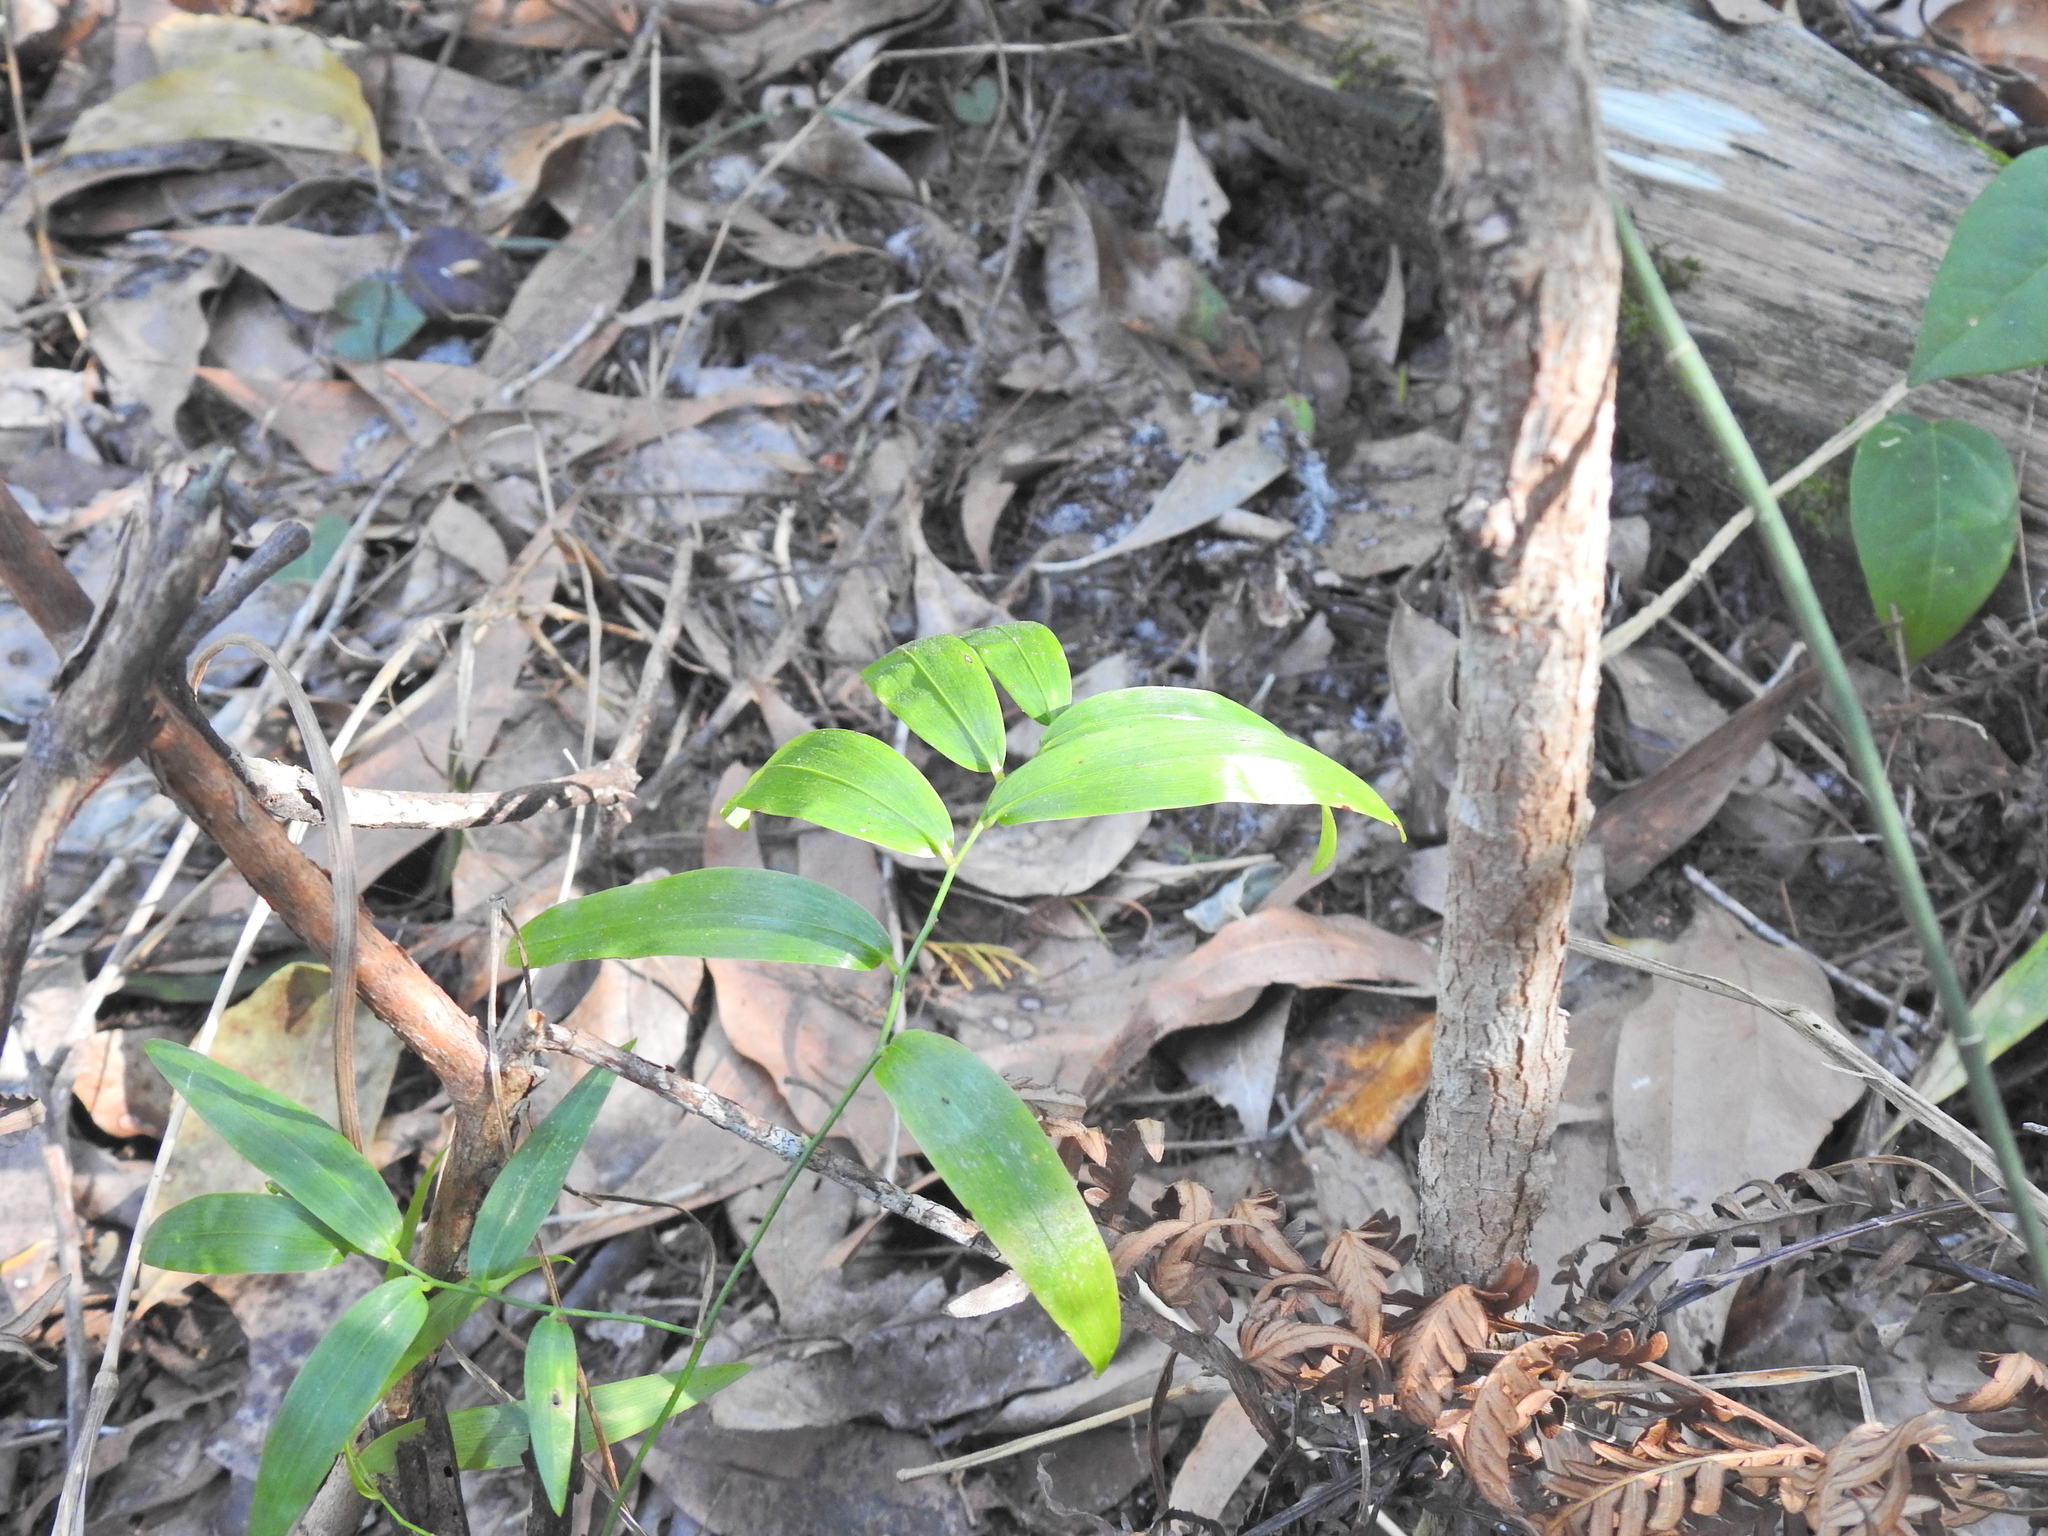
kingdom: Plantae
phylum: Tracheophyta
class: Liliopsida
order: Asparagales
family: Asphodelaceae
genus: Geitonoplesium
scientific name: Geitonoplesium cymosum
